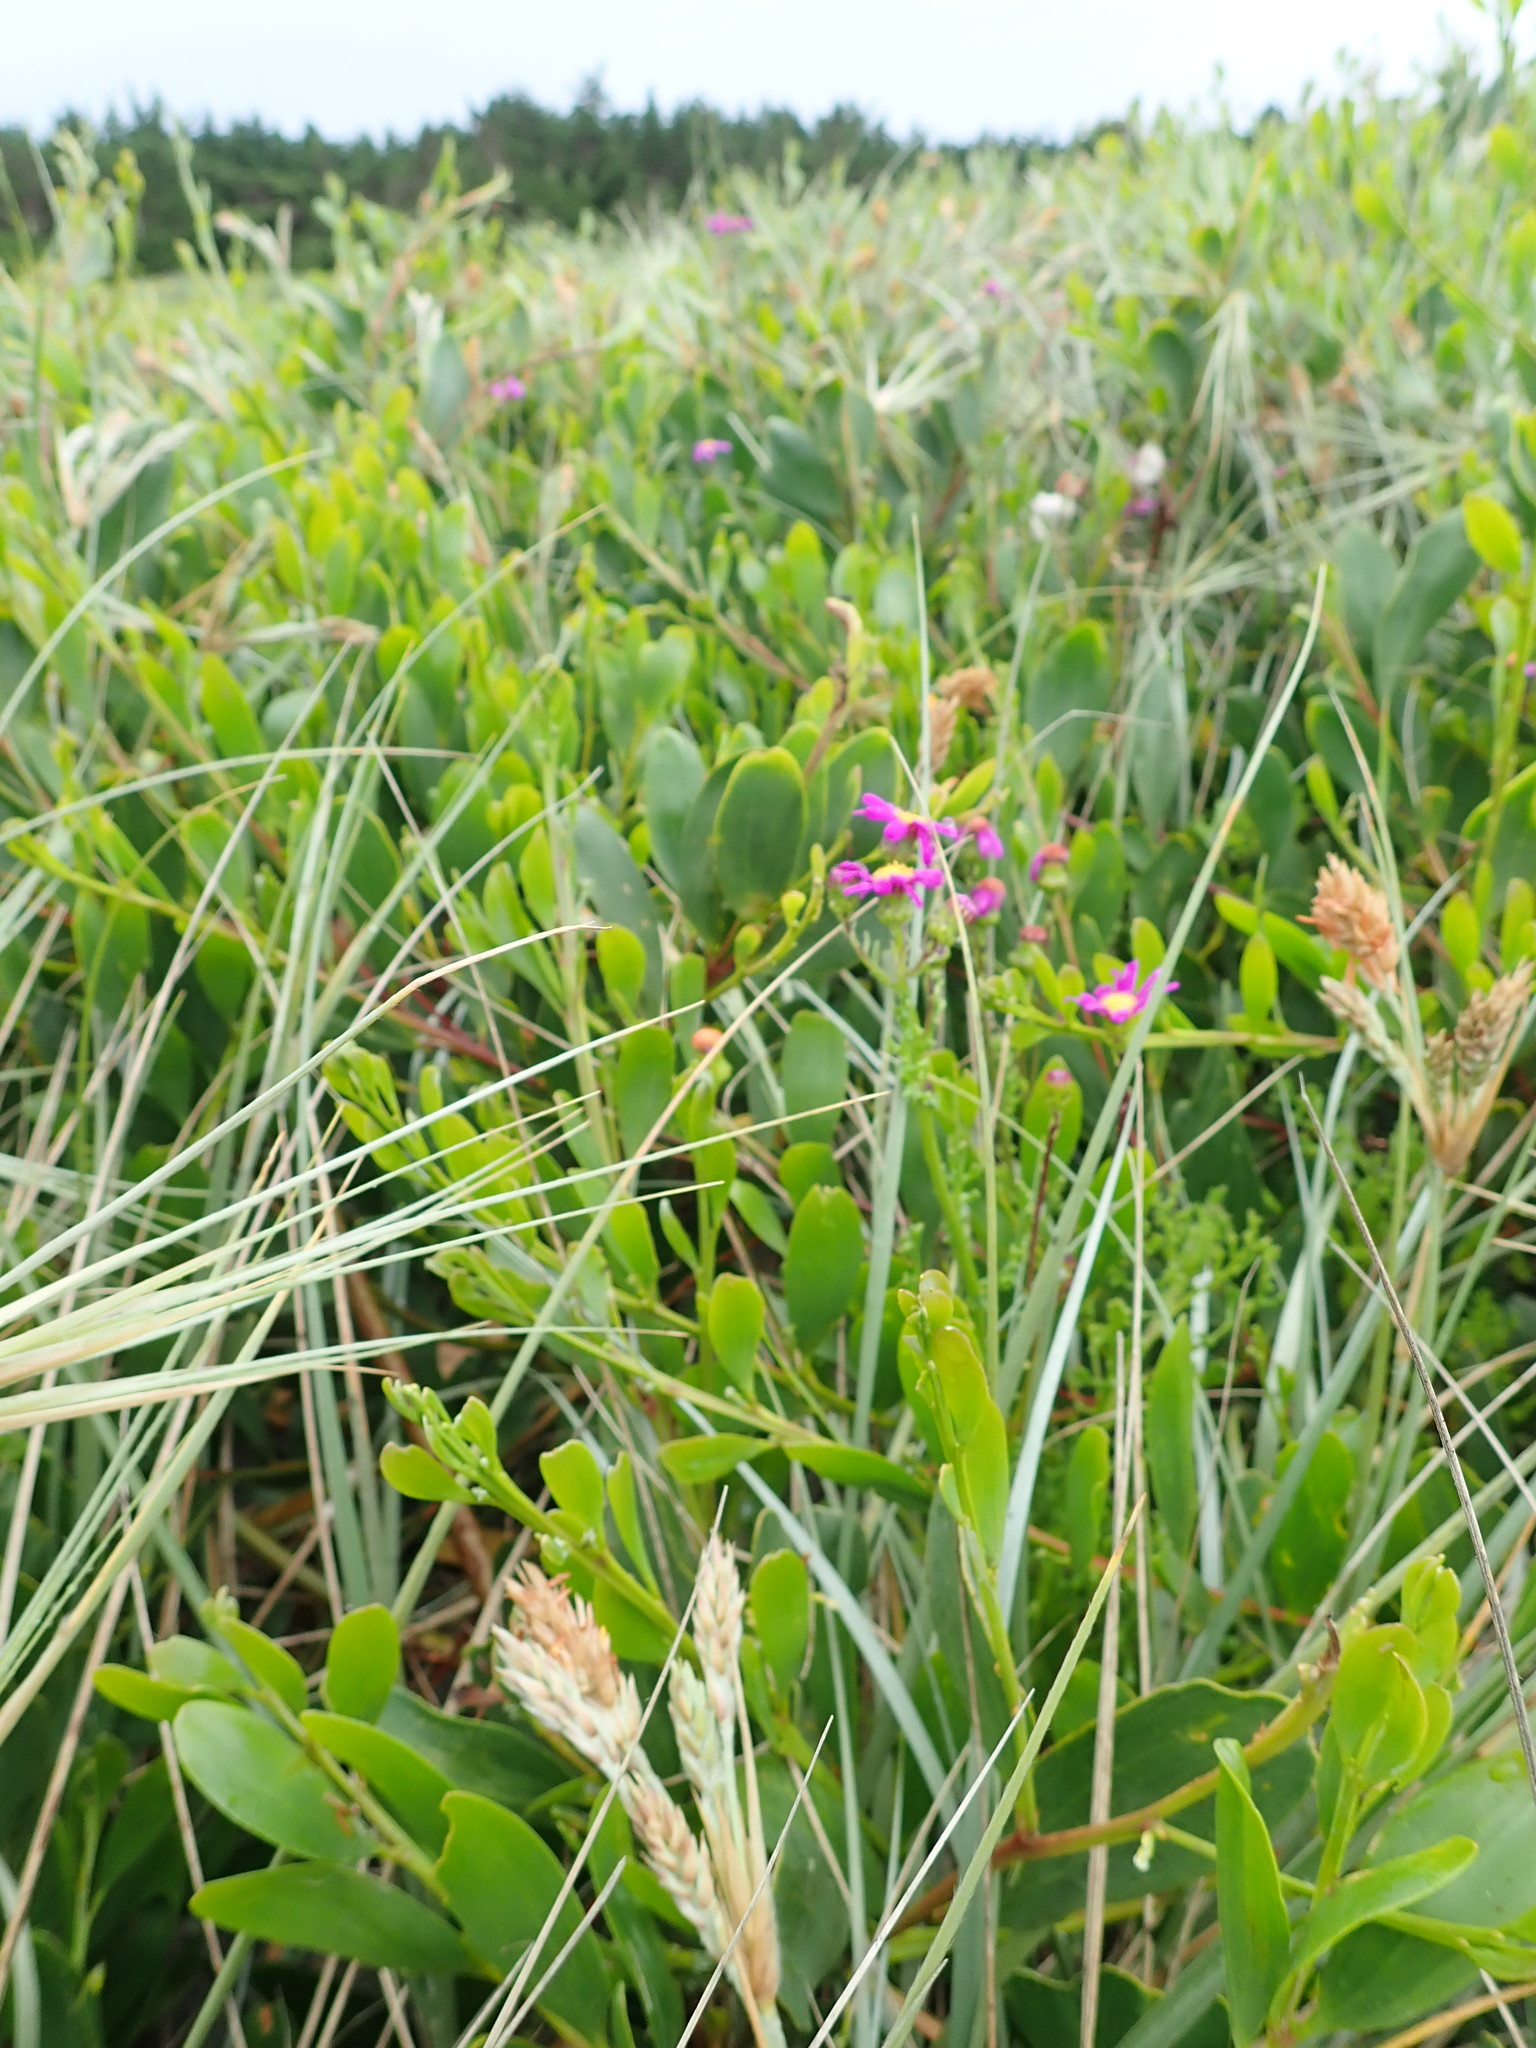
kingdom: Plantae
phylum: Tracheophyta
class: Magnoliopsida
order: Asterales
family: Asteraceae
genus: Senecio
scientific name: Senecio elegans
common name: Purple groundsel
